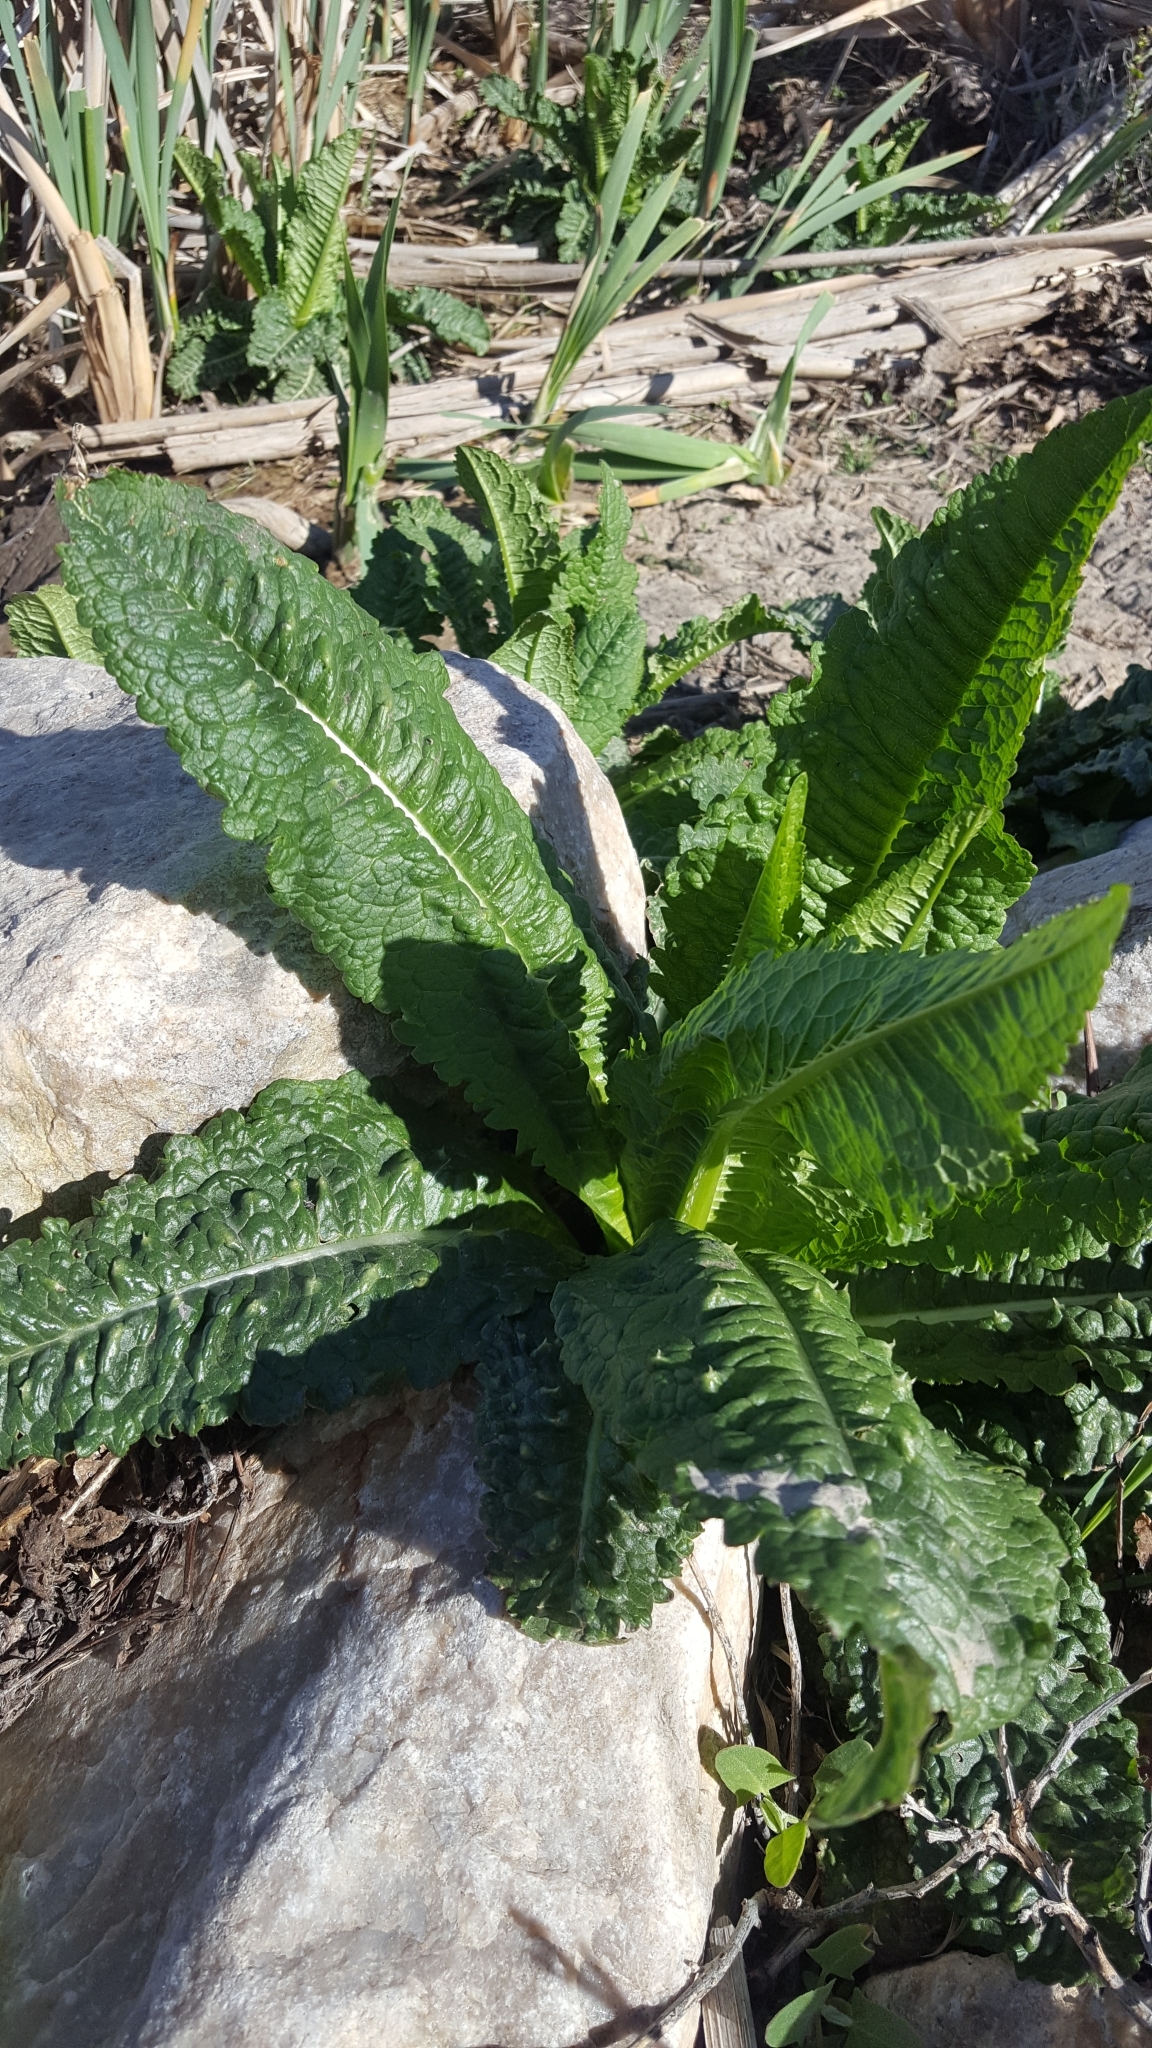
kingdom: Plantae
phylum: Tracheophyta
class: Magnoliopsida
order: Dipsacales
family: Caprifoliaceae
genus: Dipsacus
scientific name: Dipsacus fullonum
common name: Teasel
